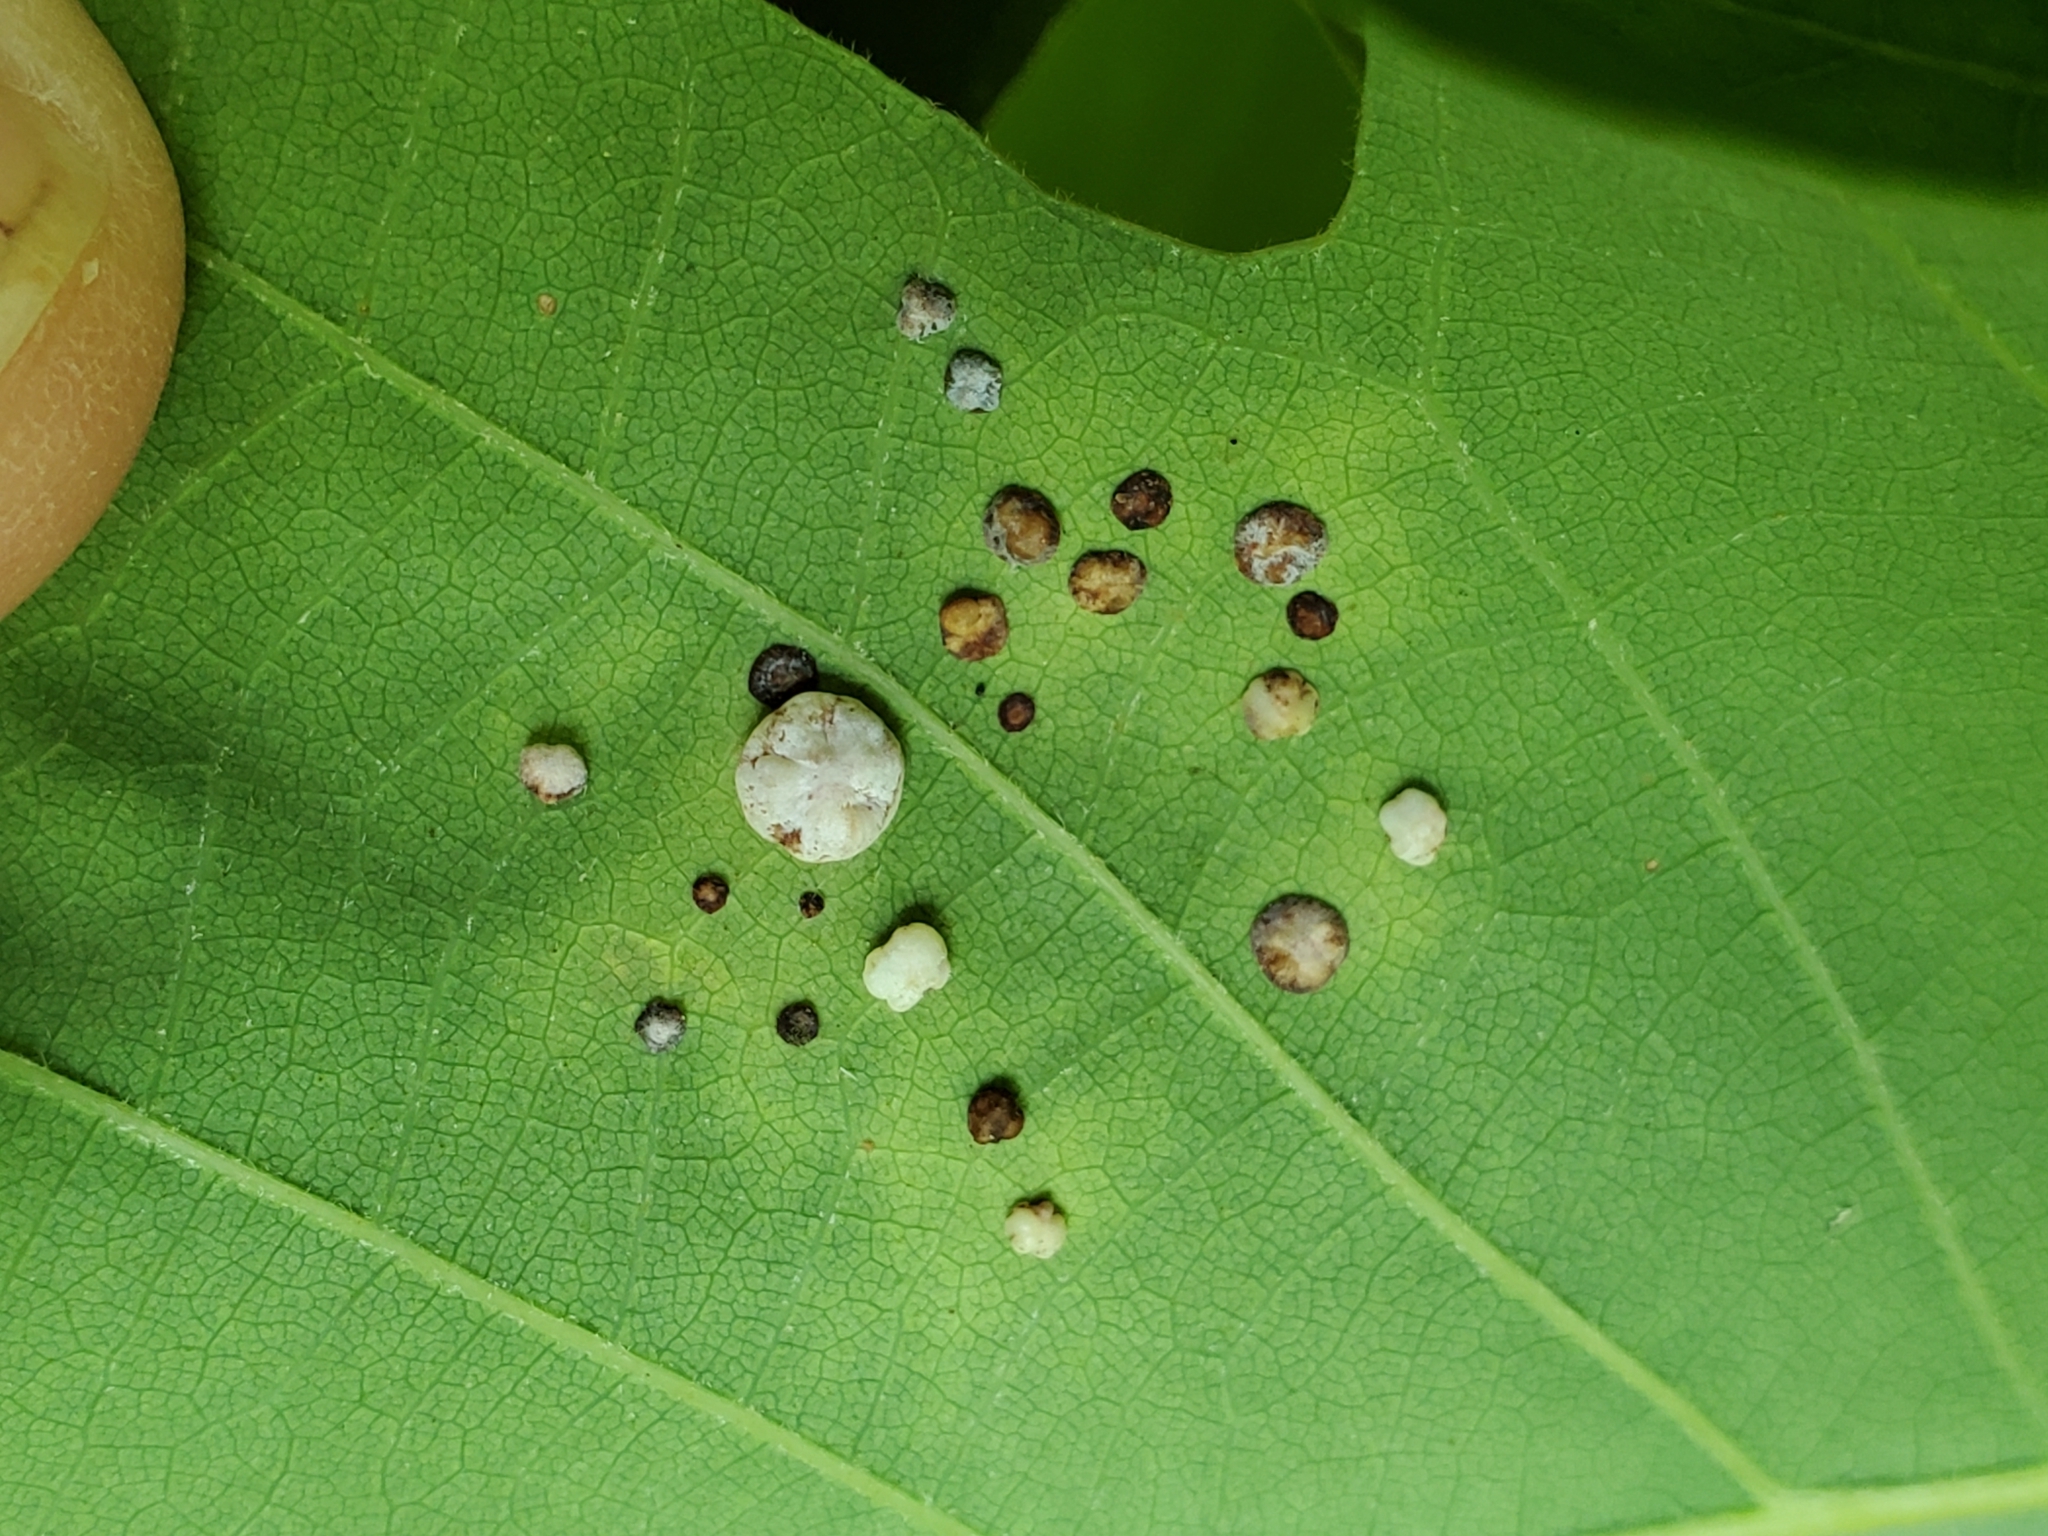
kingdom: Animalia
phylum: Arthropoda
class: Insecta
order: Hymenoptera
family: Cynipidae
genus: Phylloteras
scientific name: Phylloteras poculum
